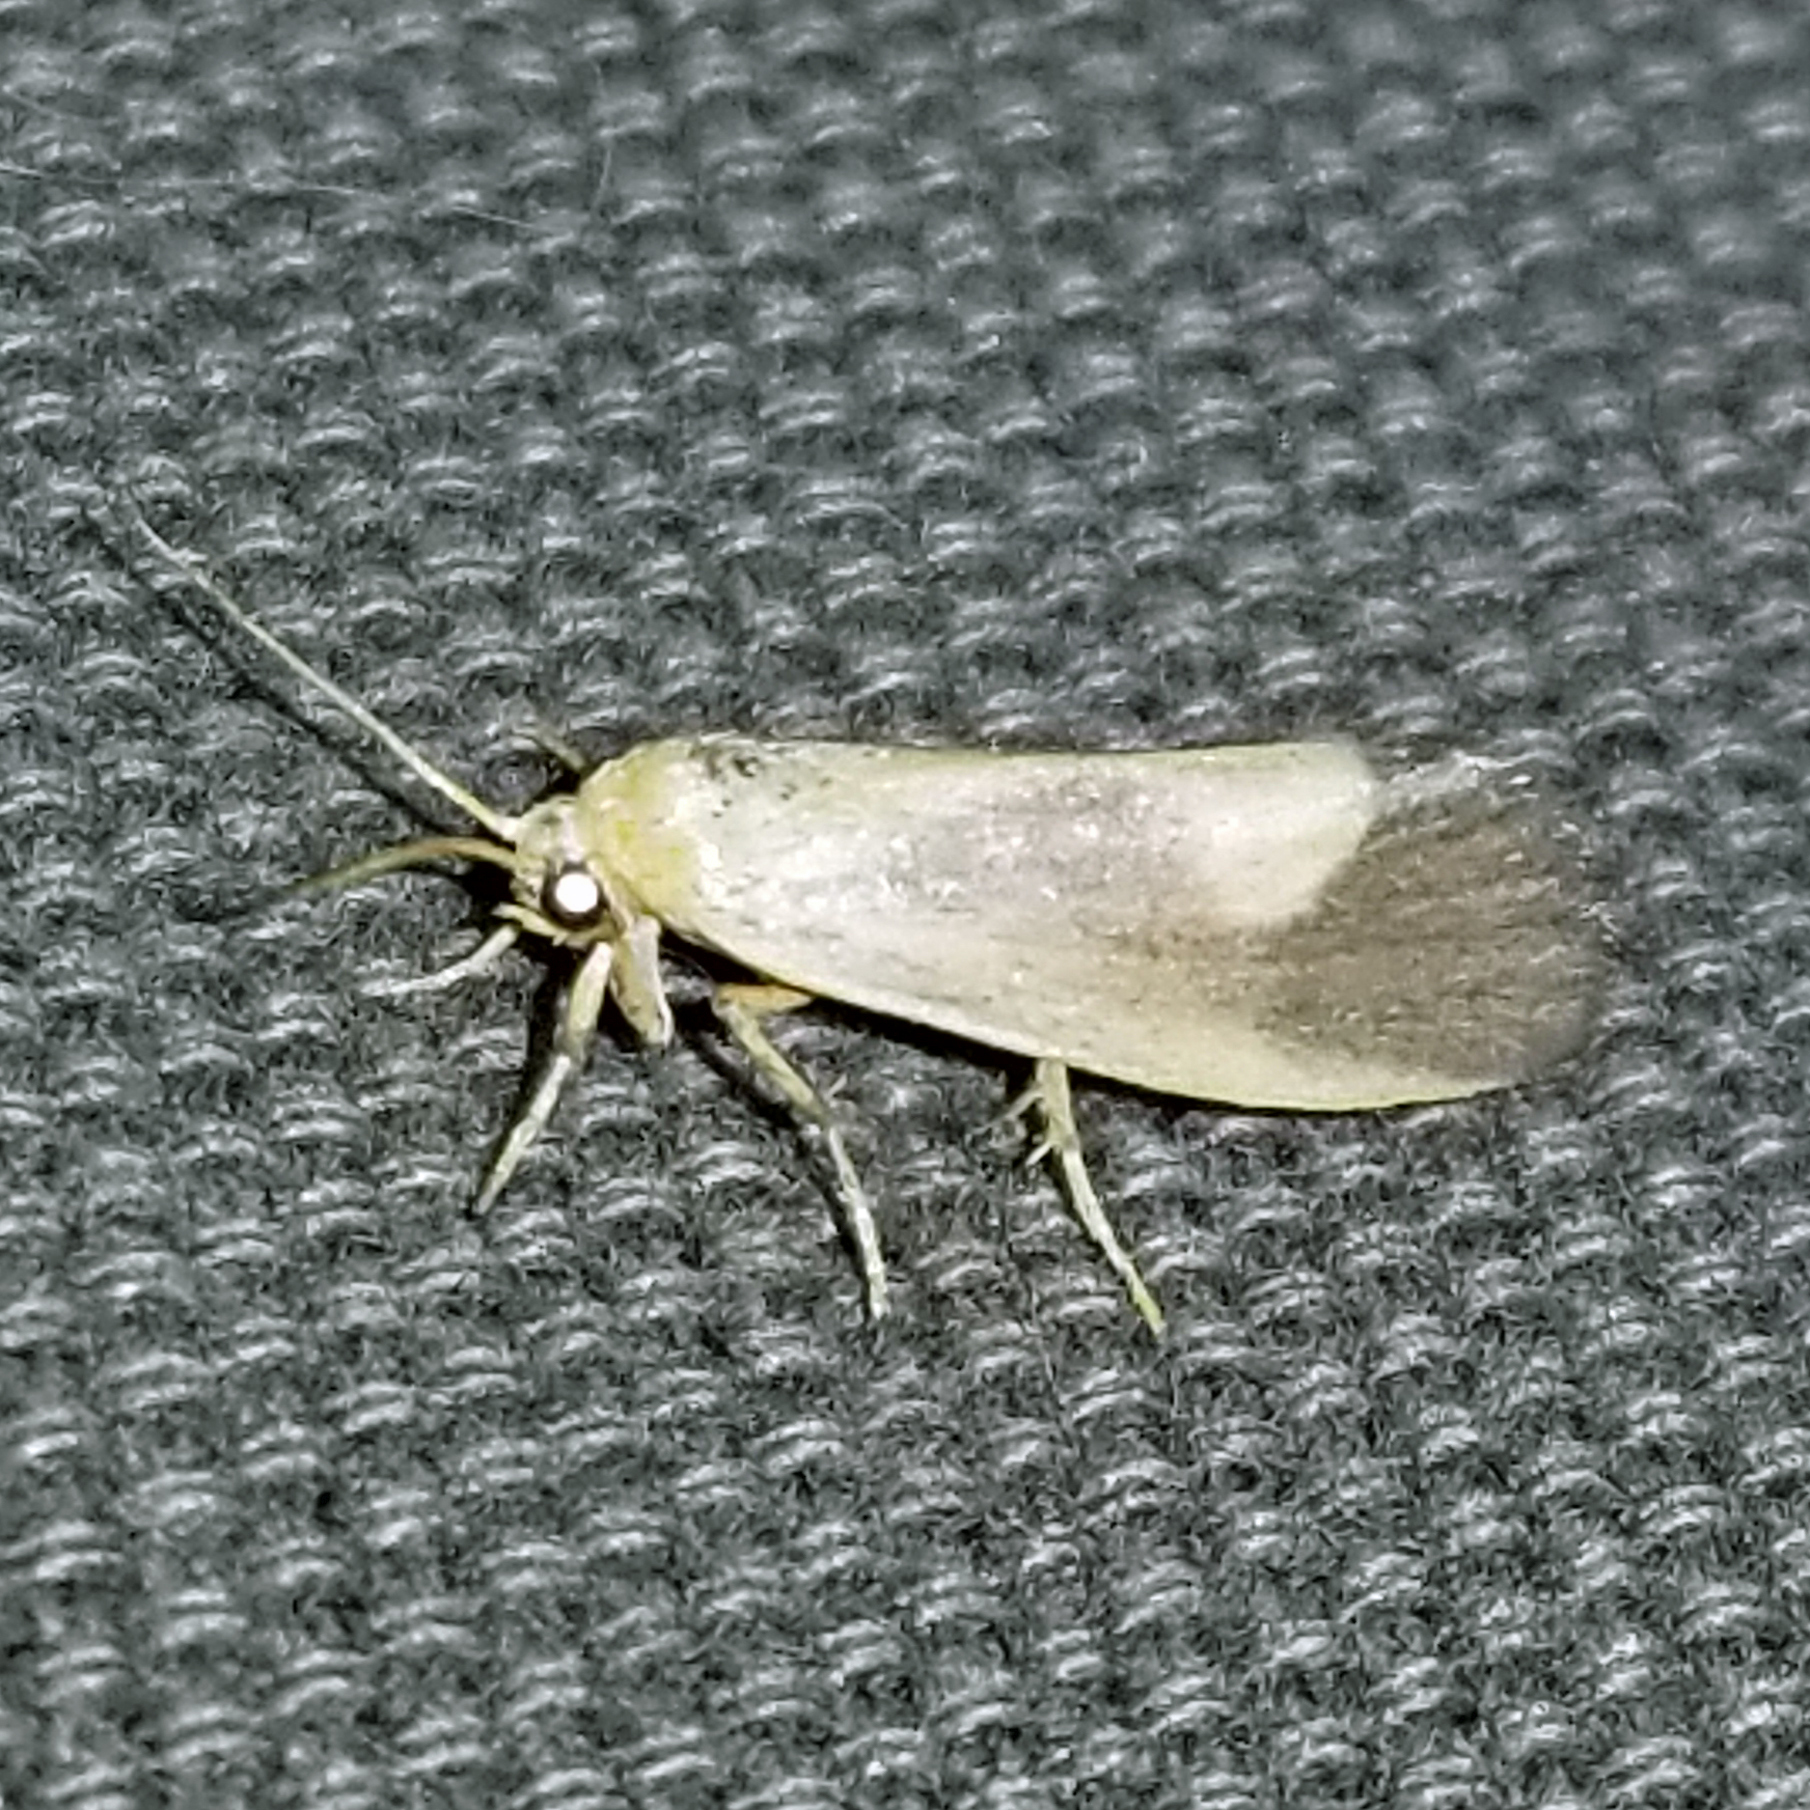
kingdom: Animalia
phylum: Arthropoda
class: Insecta
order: Lepidoptera
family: Erebidae
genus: Cisthene
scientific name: Cisthene plumbea
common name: Lead colored lichen moth
